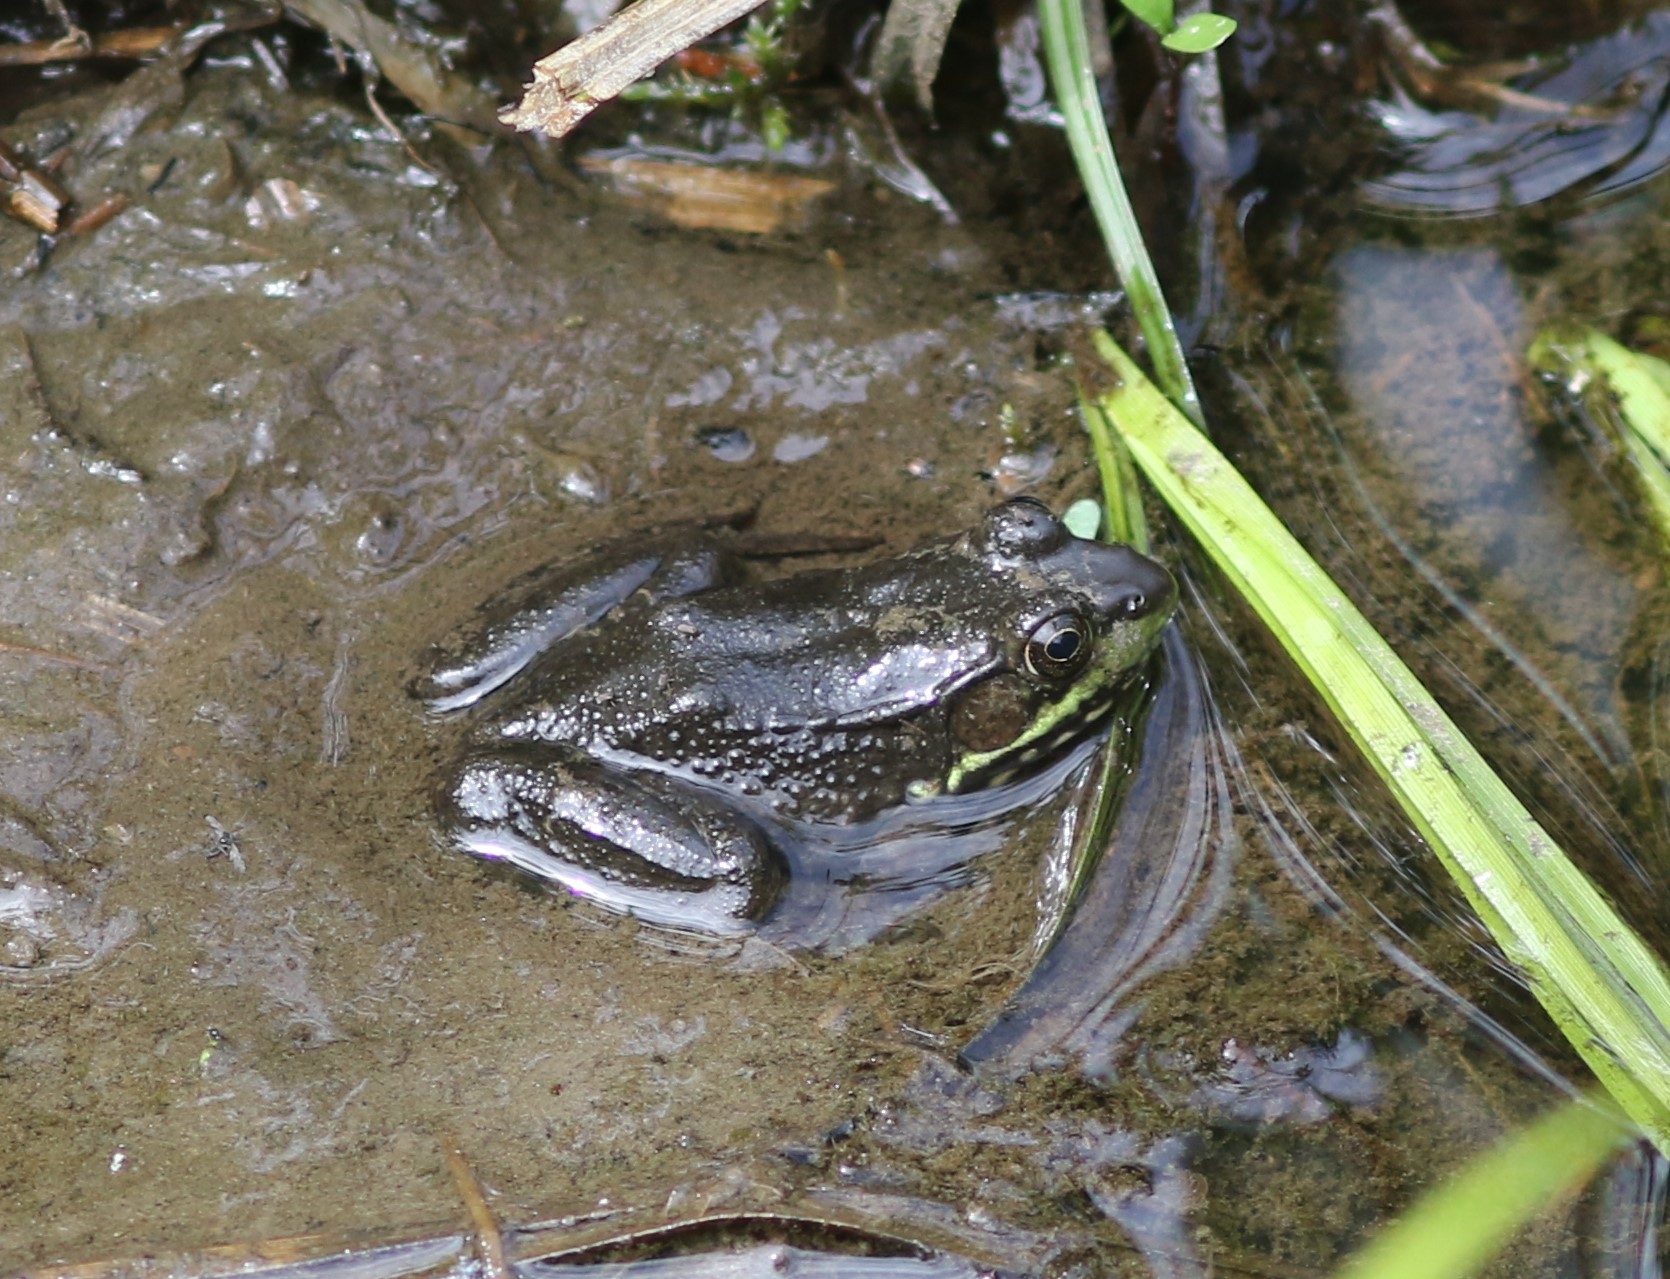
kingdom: Animalia
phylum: Chordata
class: Amphibia
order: Anura
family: Ranidae
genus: Lithobates
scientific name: Lithobates clamitans
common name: Green frog
